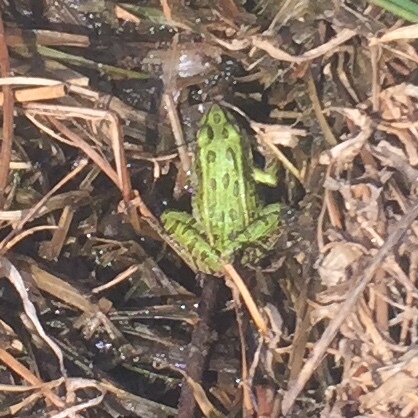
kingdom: Animalia
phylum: Chordata
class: Amphibia
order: Anura
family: Ranidae
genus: Lithobates
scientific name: Lithobates pipiens
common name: Northern leopard frog
